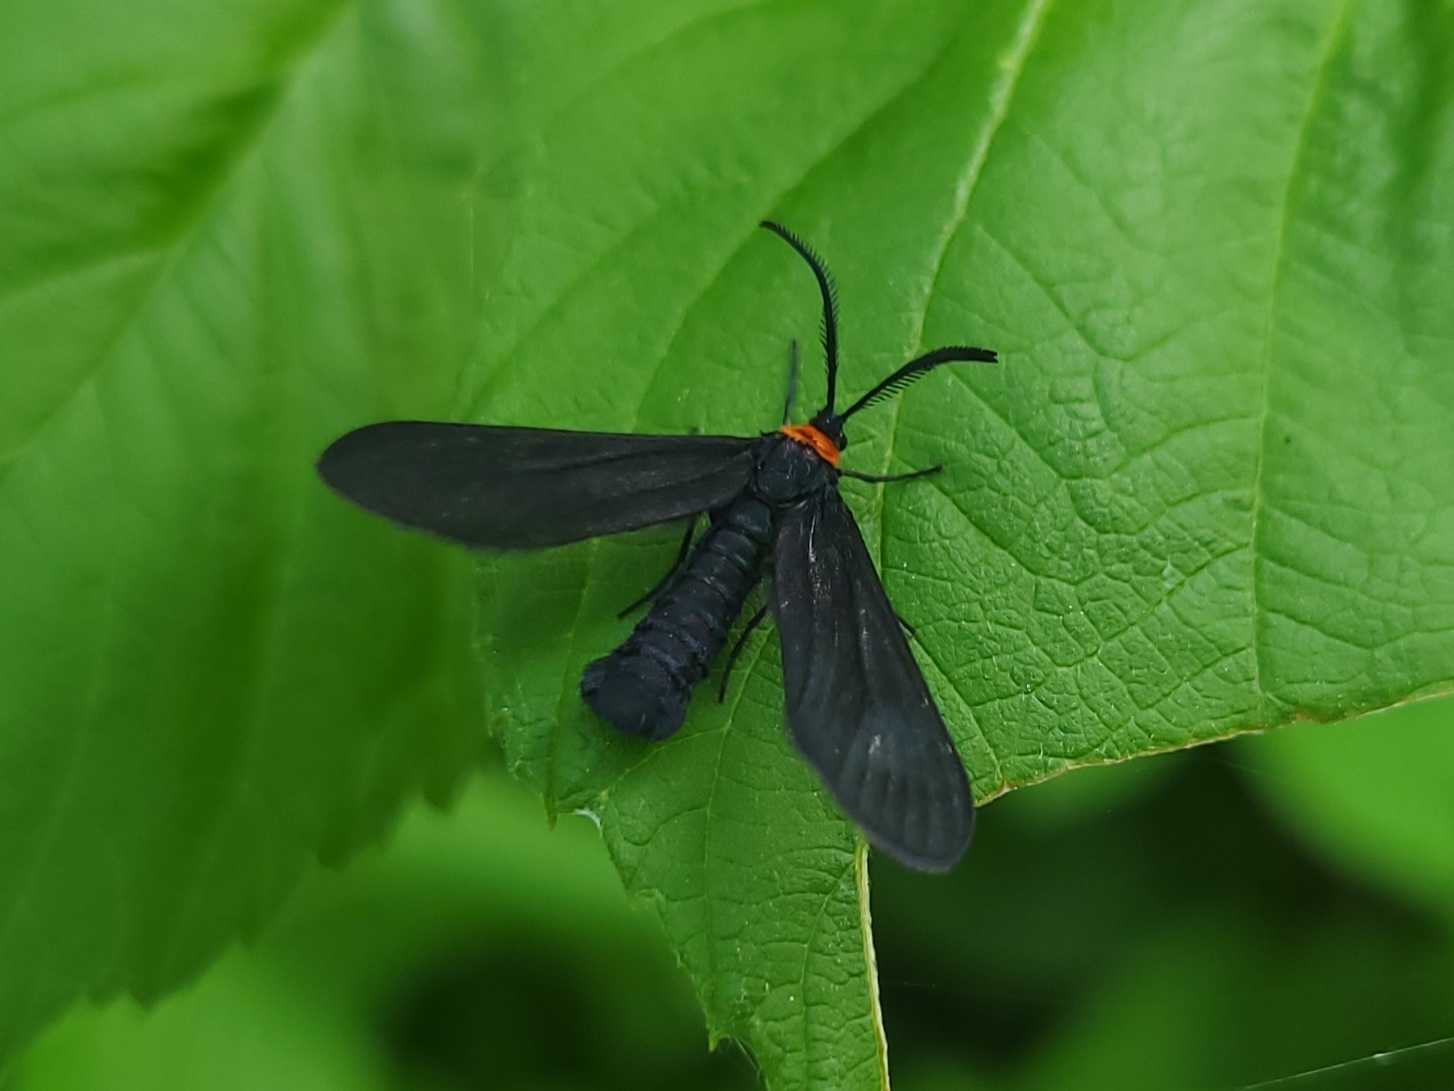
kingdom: Animalia
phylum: Arthropoda
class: Insecta
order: Lepidoptera
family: Zygaenidae
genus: Harrisina
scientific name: Harrisina americana
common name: Grapeleaf skeletonizer moth
